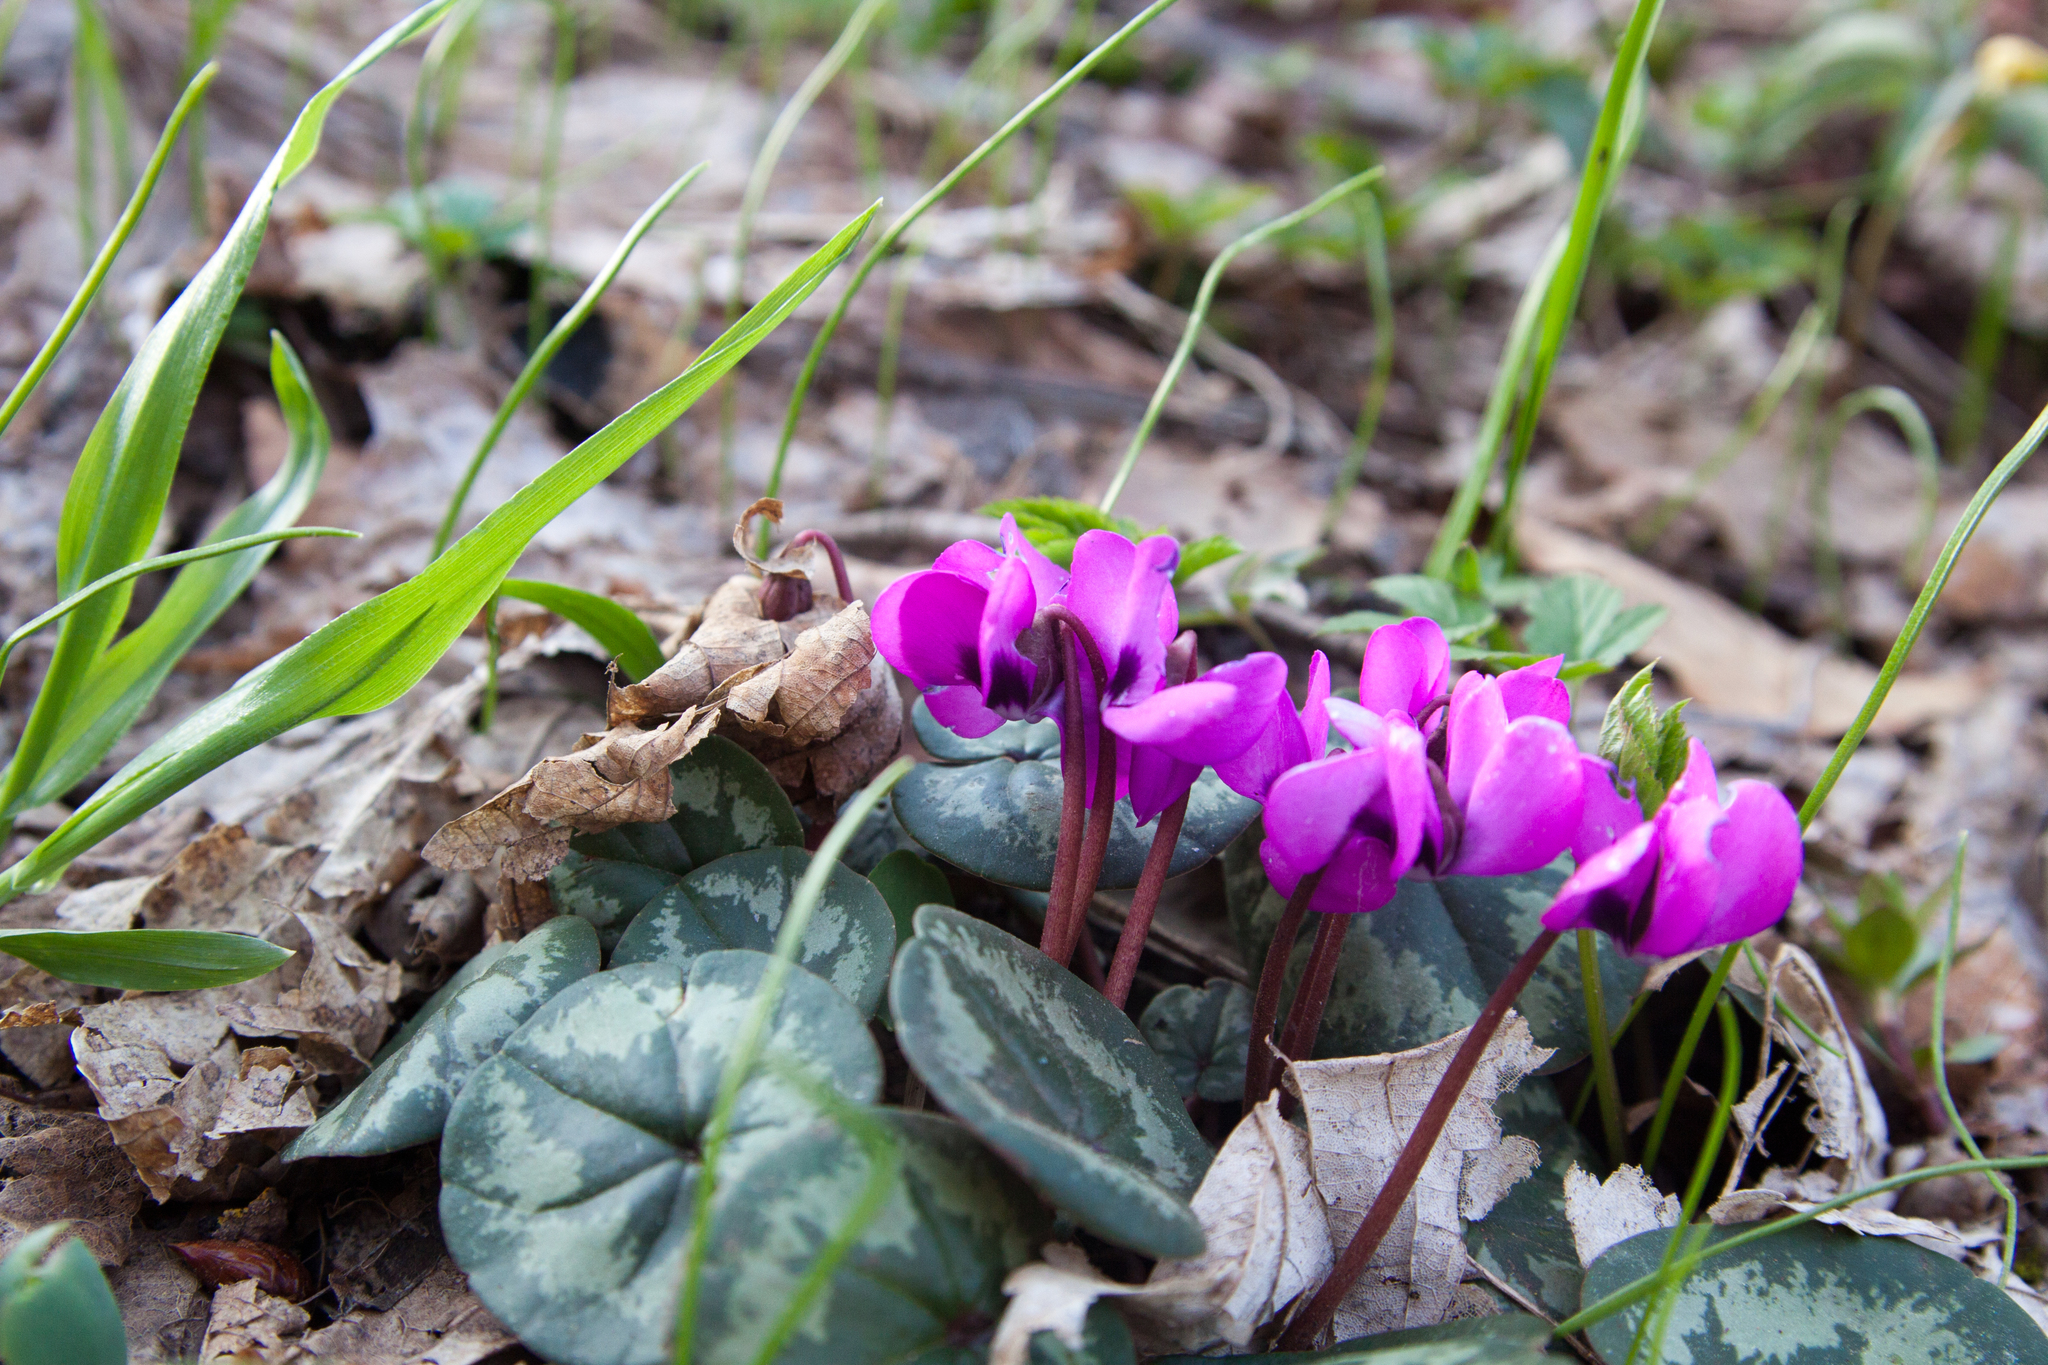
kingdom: Plantae
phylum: Tracheophyta
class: Magnoliopsida
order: Ericales
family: Primulaceae
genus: Cyclamen
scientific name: Cyclamen coum
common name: Eastern sowbread
